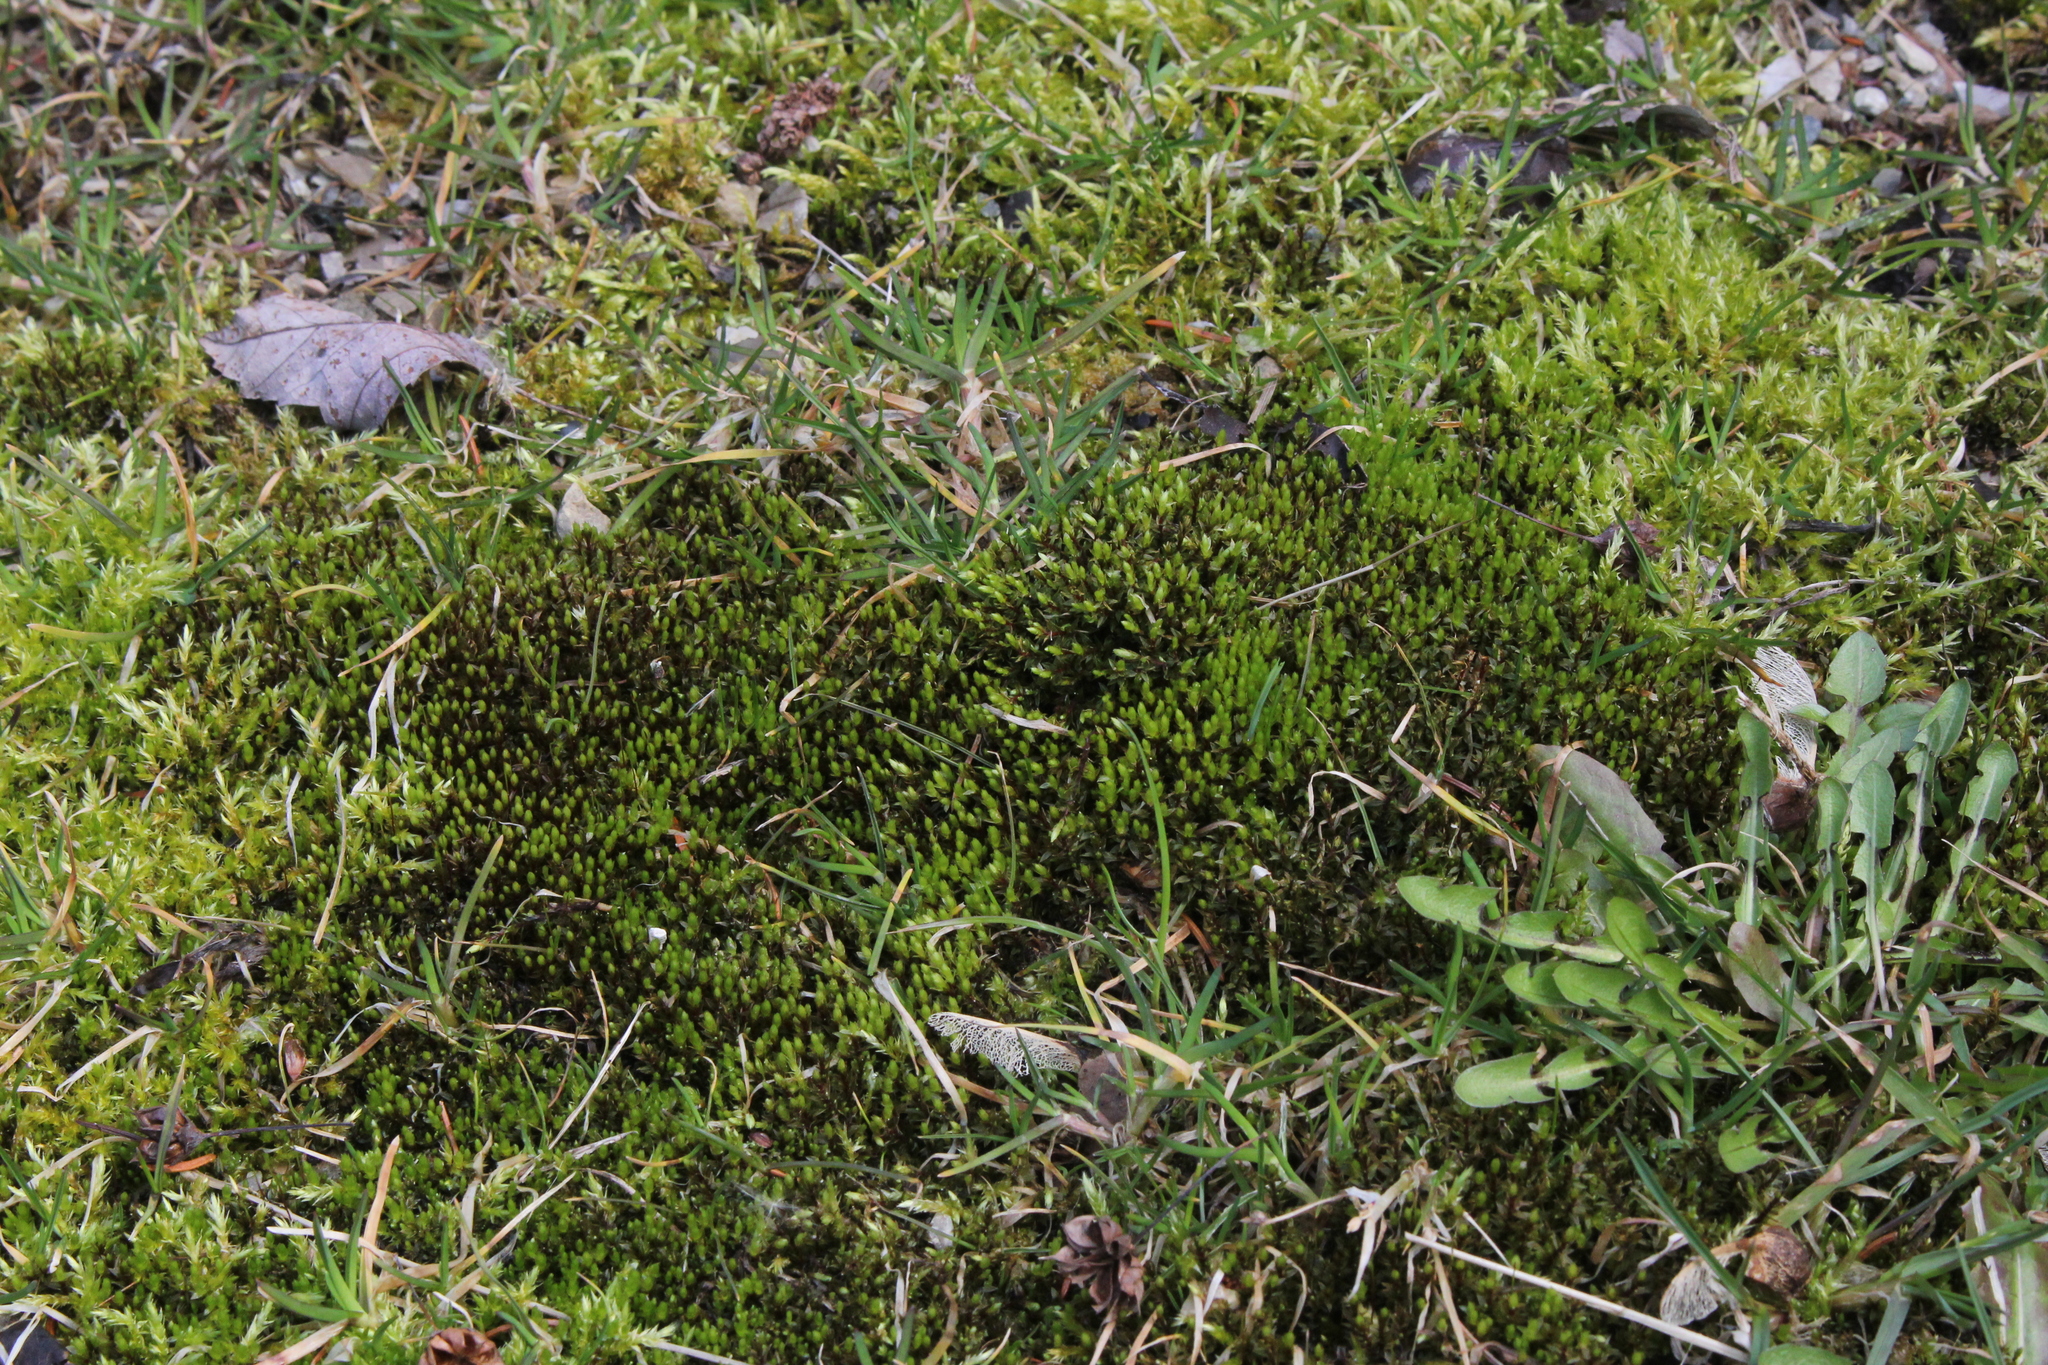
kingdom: Plantae
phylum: Bryophyta
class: Bryopsida
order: Bryales
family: Bryaceae
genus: Ptychostomum
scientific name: Ptychostomum pseudotriquetrum
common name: Long-leaved thread moss
